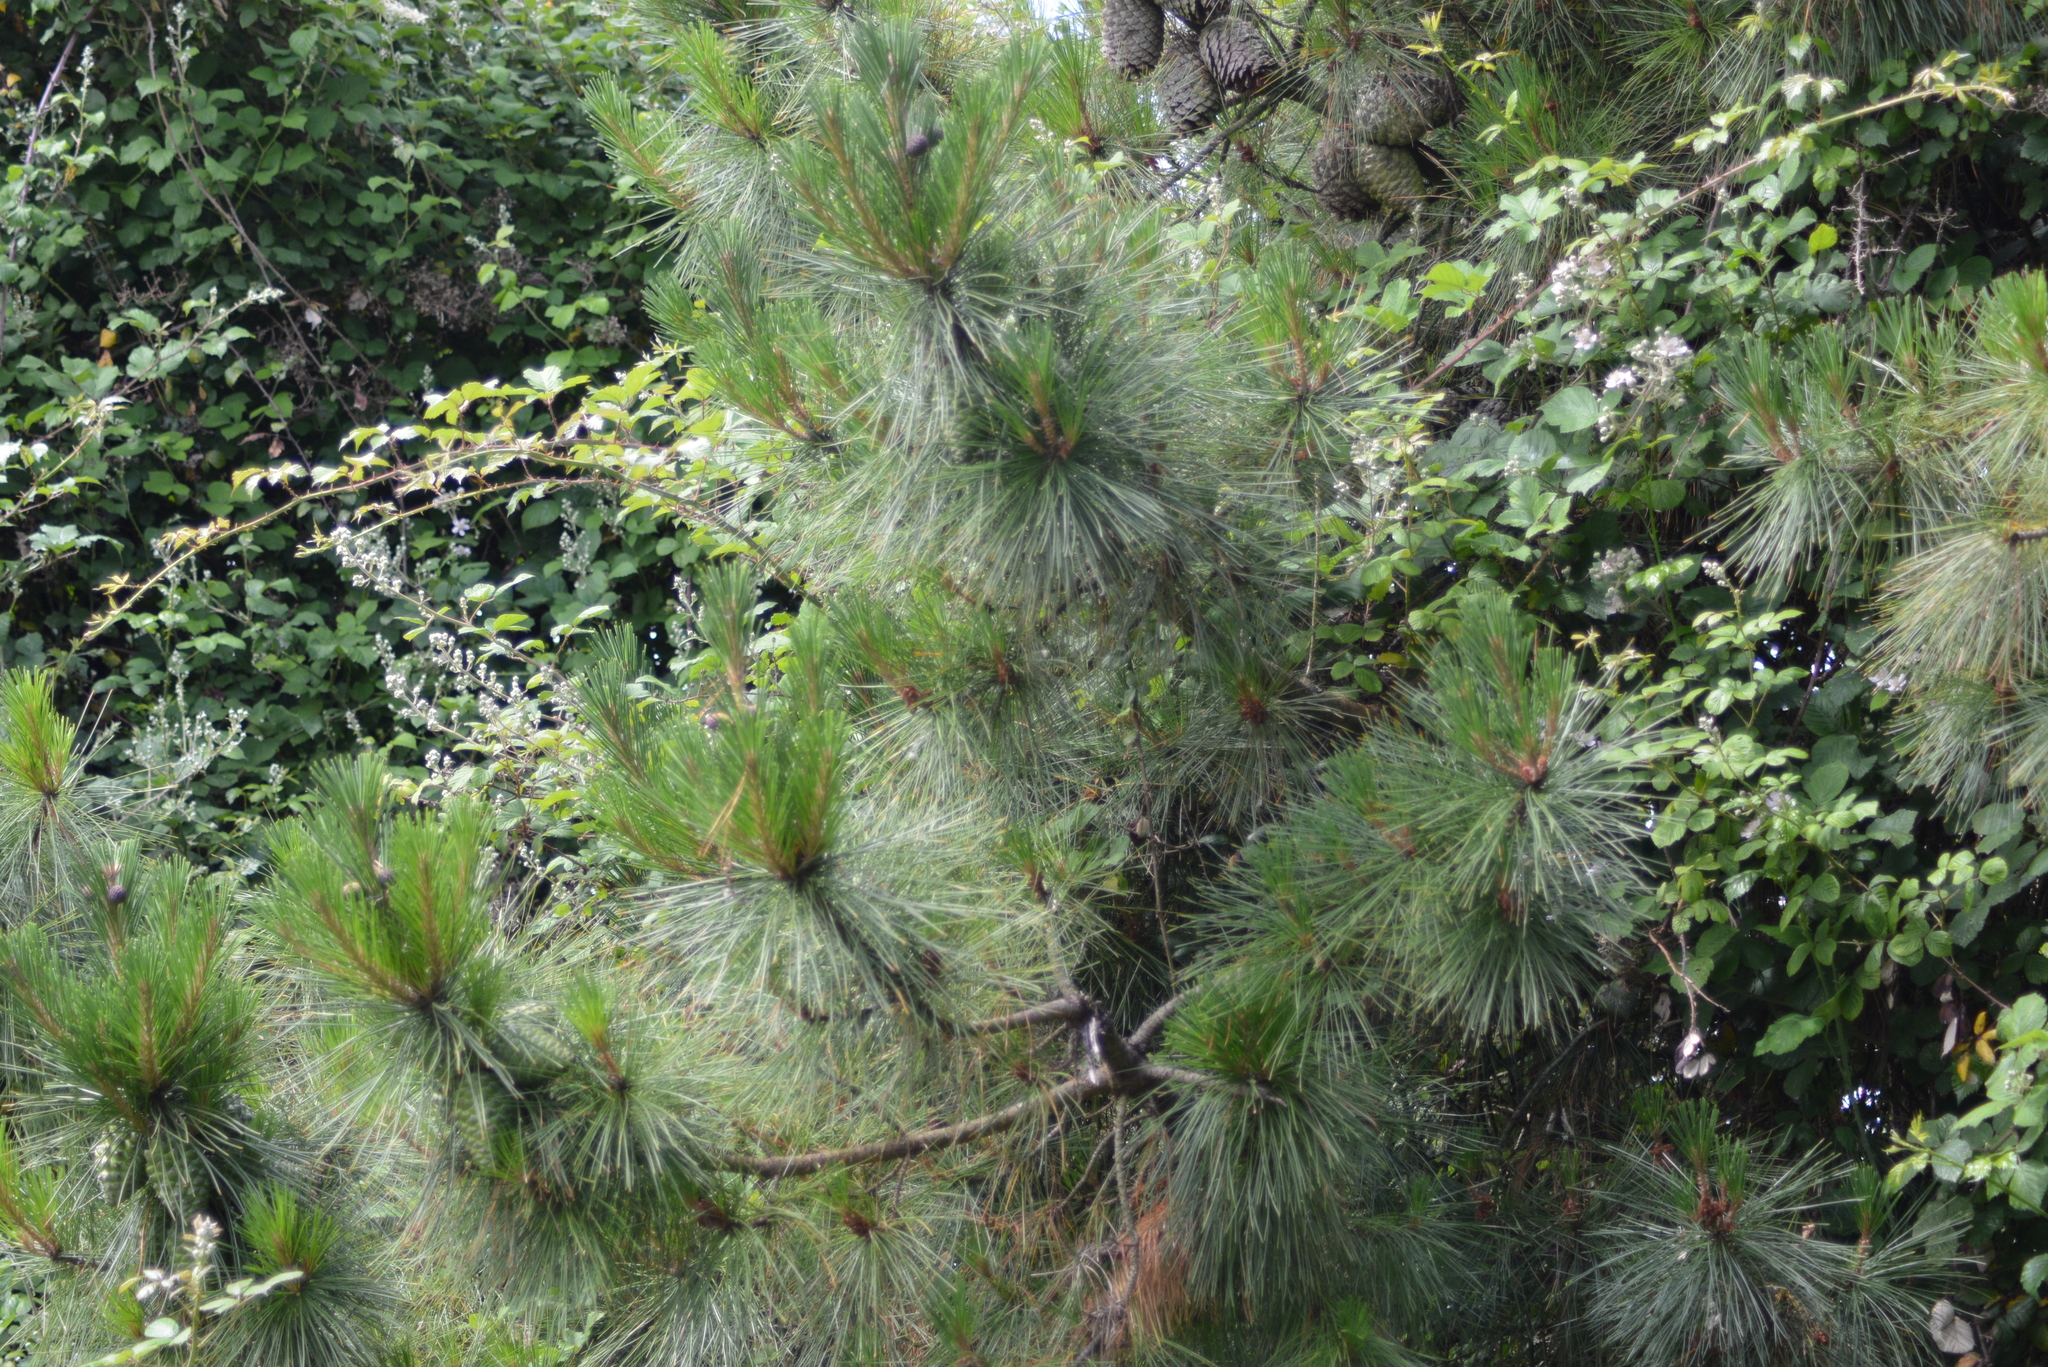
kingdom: Plantae
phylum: Tracheophyta
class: Pinopsida
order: Pinales
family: Pinaceae
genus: Pinus
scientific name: Pinus radiata
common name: Monterey pine
